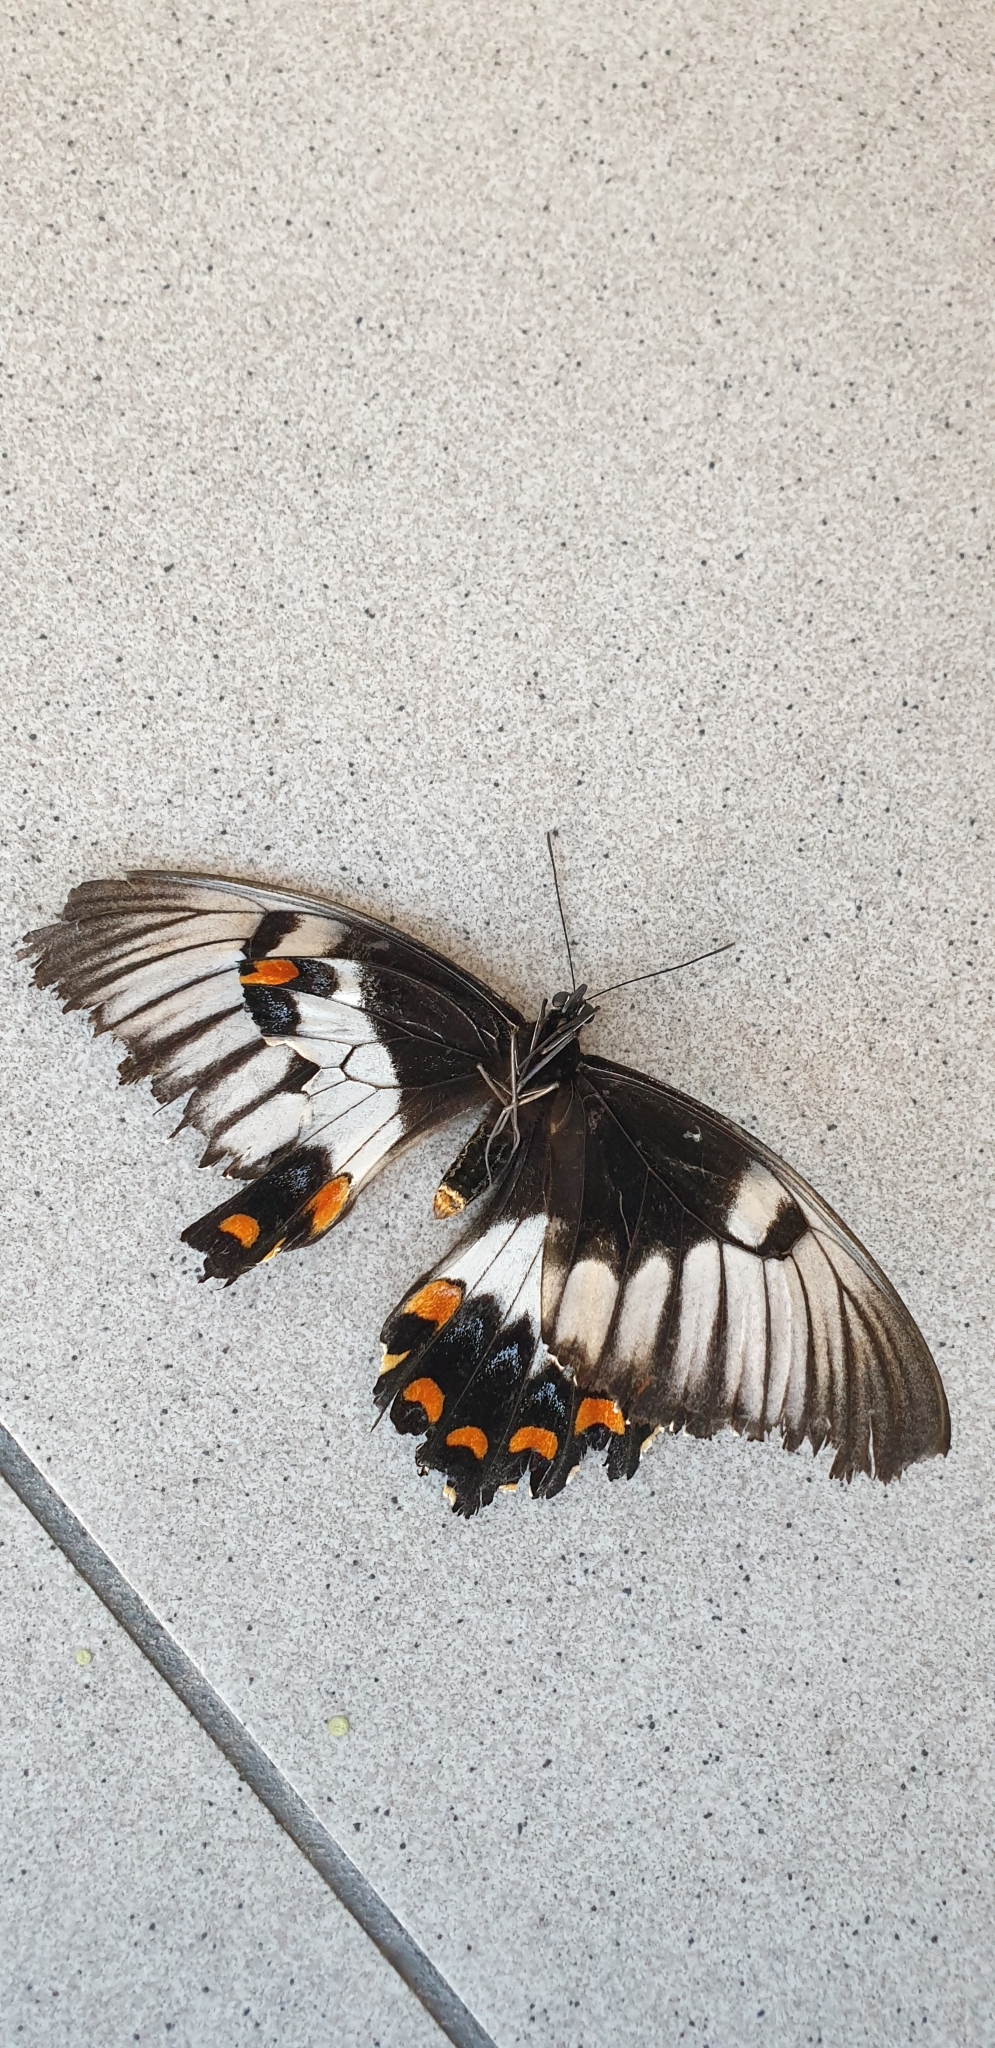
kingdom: Animalia
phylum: Arthropoda
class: Insecta
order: Lepidoptera
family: Papilionidae
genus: Papilio
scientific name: Papilio aegeus
